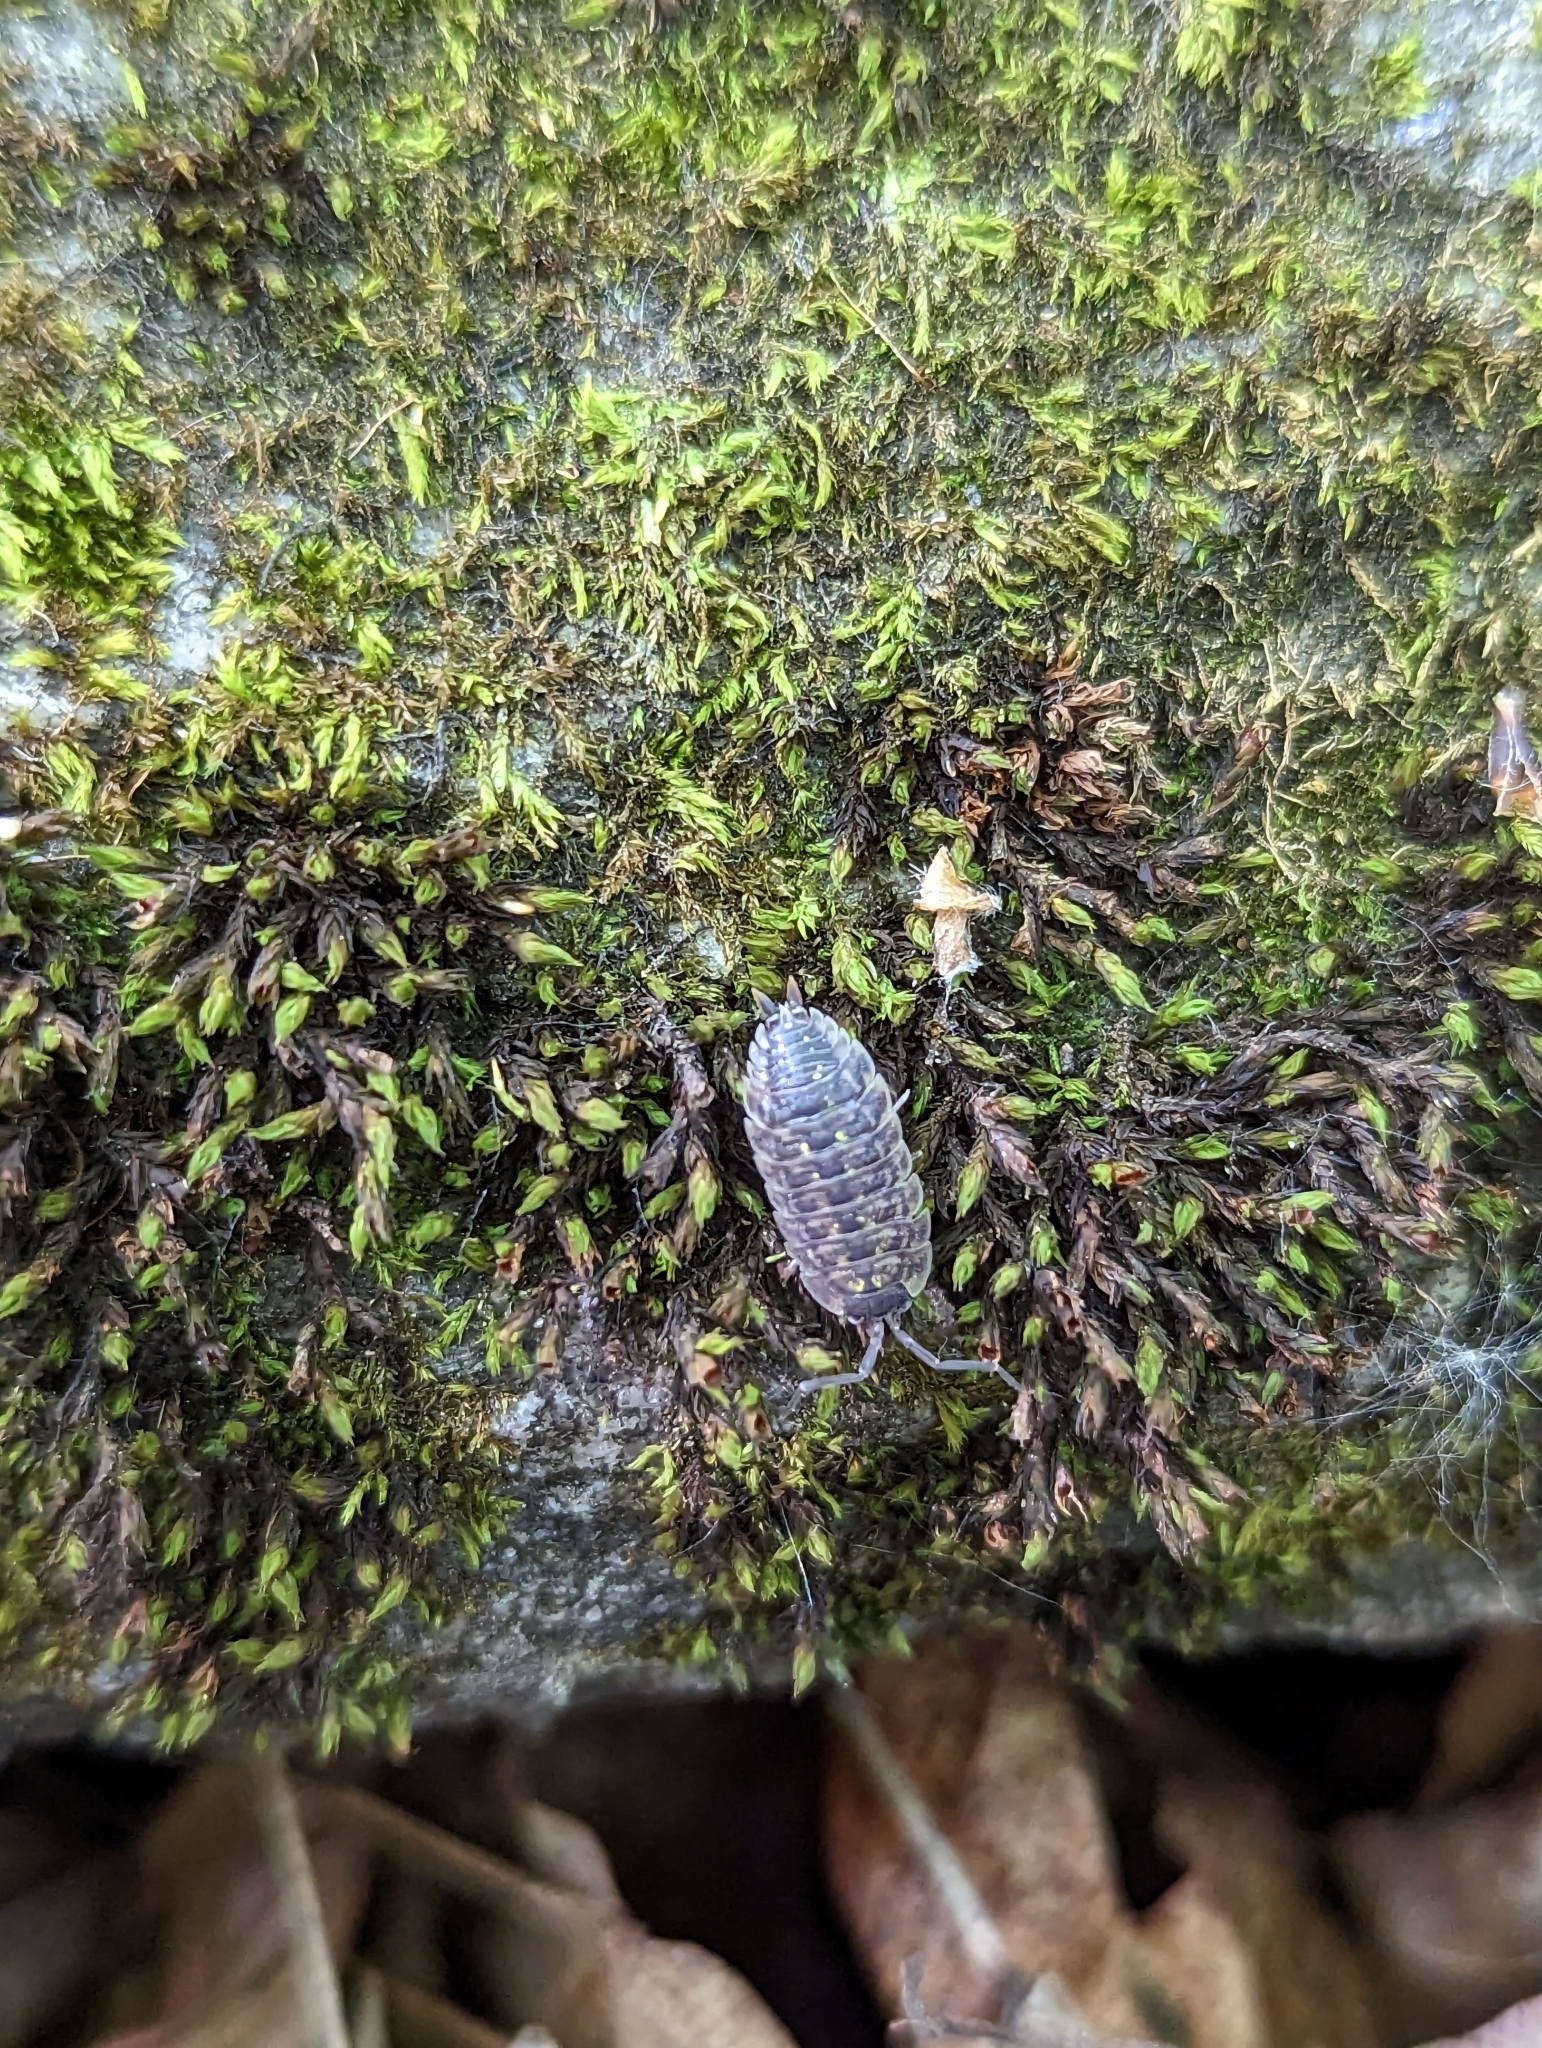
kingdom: Animalia
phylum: Arthropoda
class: Malacostraca
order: Isopoda
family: Porcellionidae
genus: Porcellio
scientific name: Porcellio spinicornis
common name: Painted woodlouse
